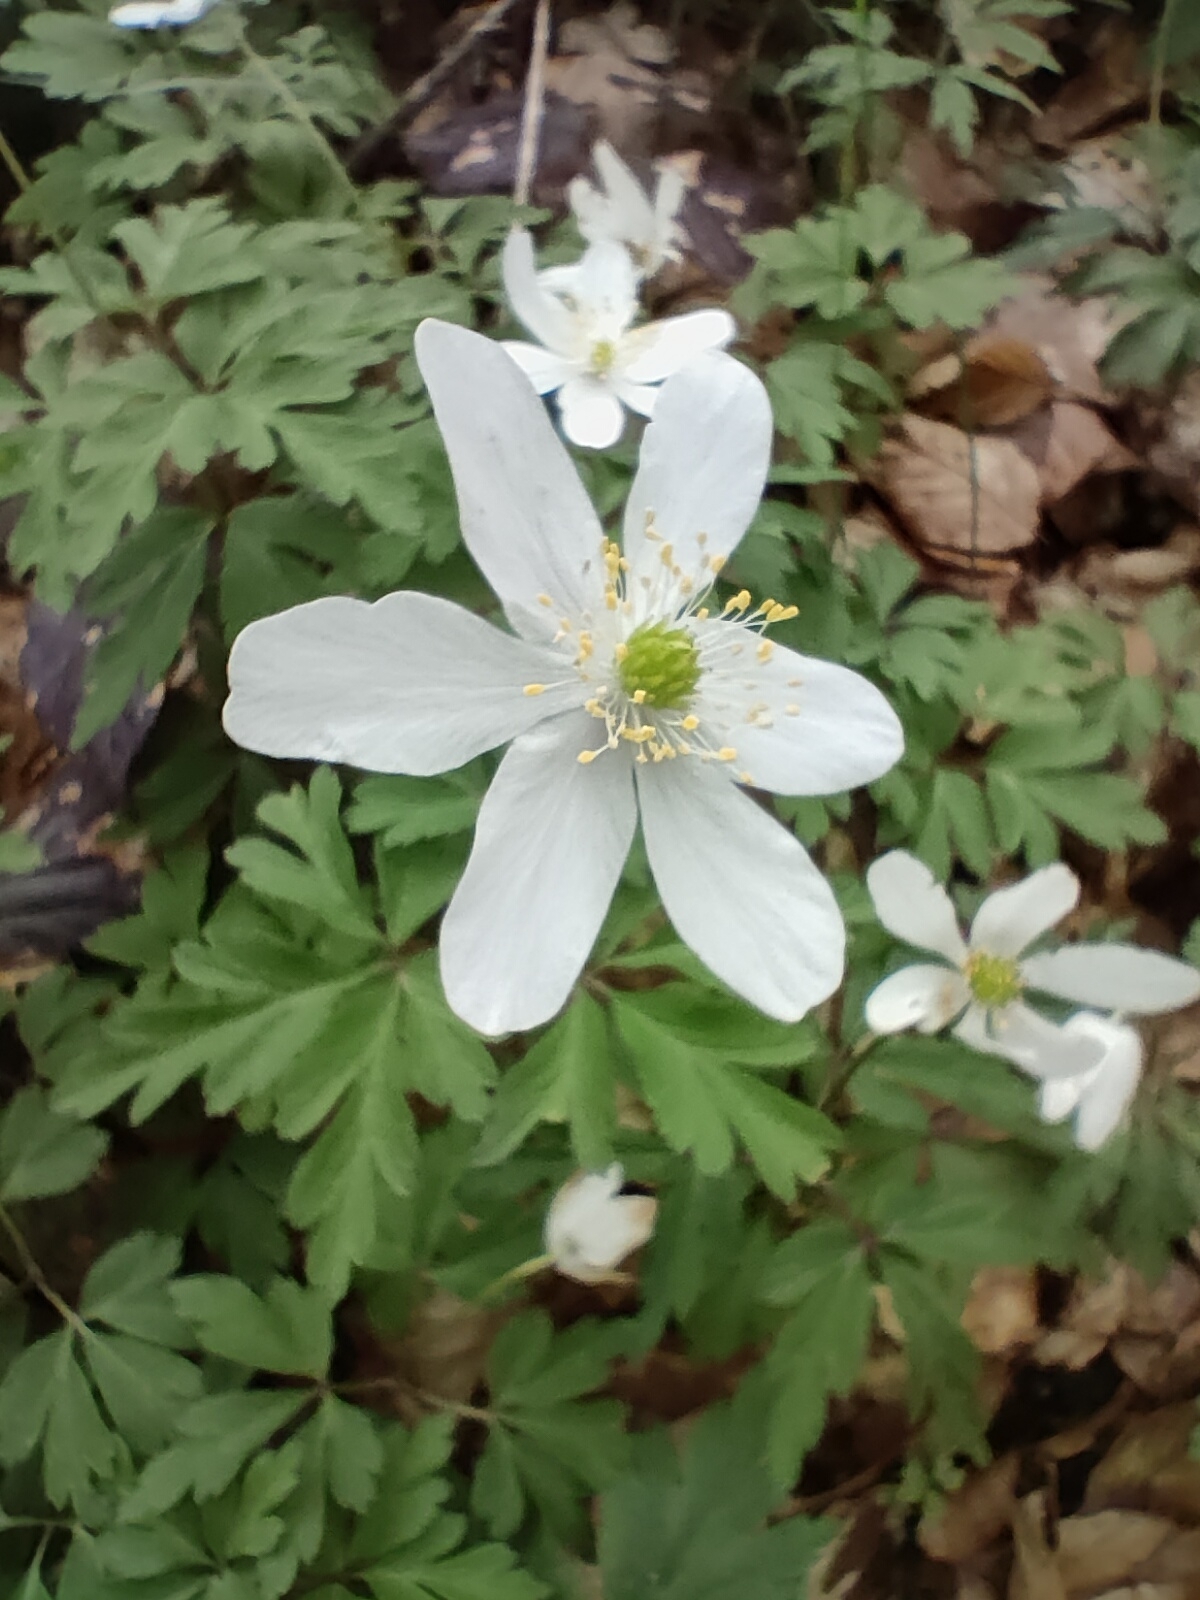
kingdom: Plantae
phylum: Tracheophyta
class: Magnoliopsida
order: Ranunculales
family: Ranunculaceae
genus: Anemone
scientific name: Anemone nemorosa
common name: Wood anemone
